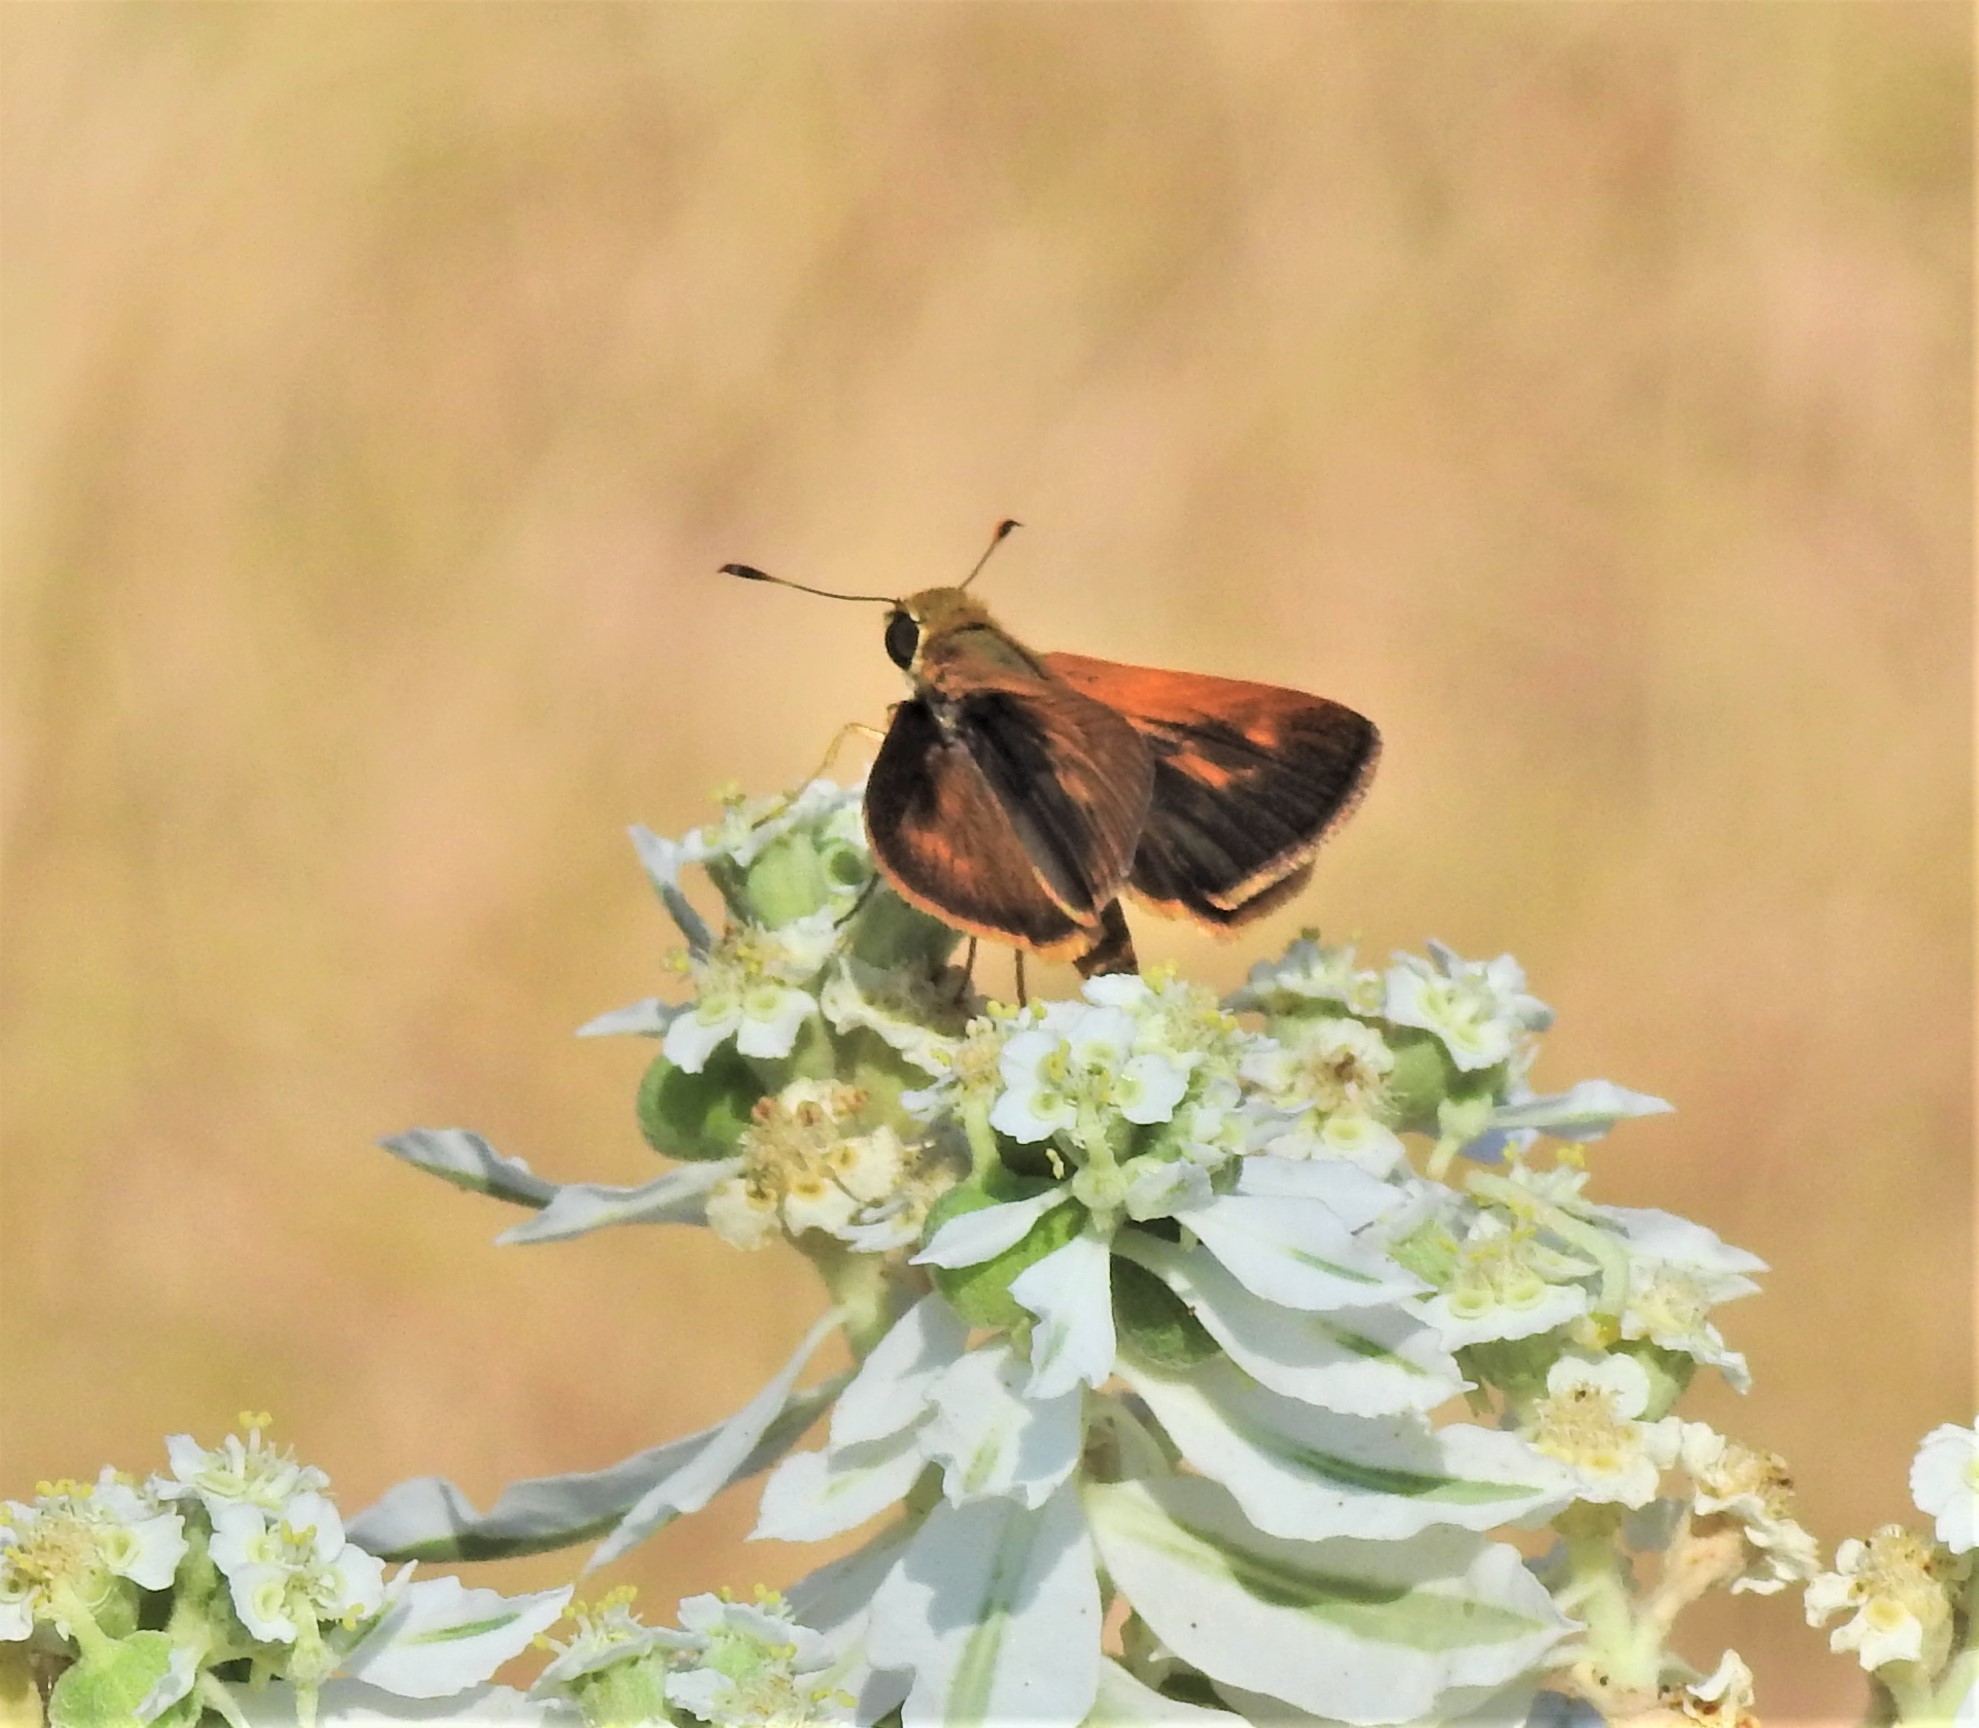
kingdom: Animalia
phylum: Arthropoda
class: Insecta
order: Lepidoptera
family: Hesperiidae
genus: Polites
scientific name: Polites otho
